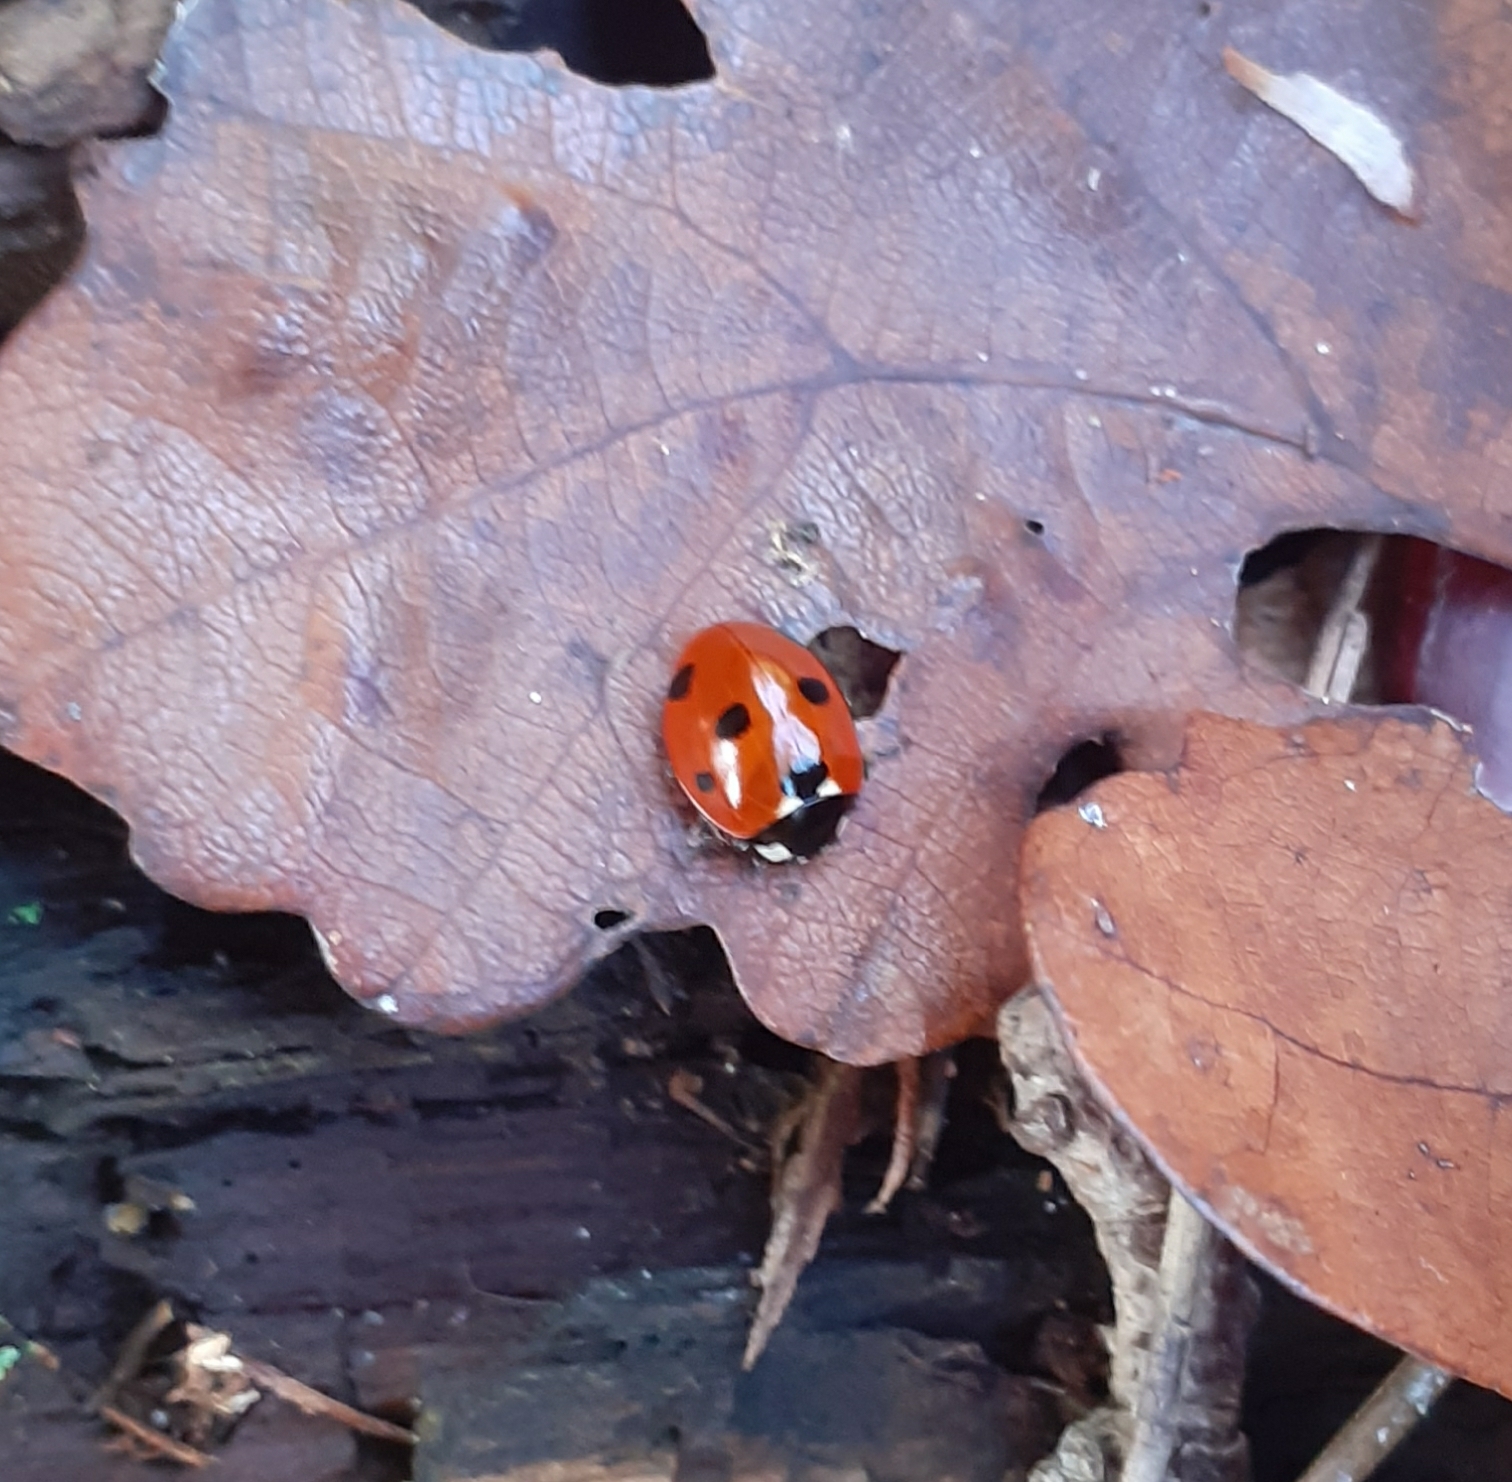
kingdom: Animalia
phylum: Arthropoda
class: Insecta
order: Coleoptera
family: Coccinellidae
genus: Coccinella
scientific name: Coccinella septempunctata
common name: Sevenspotted lady beetle
